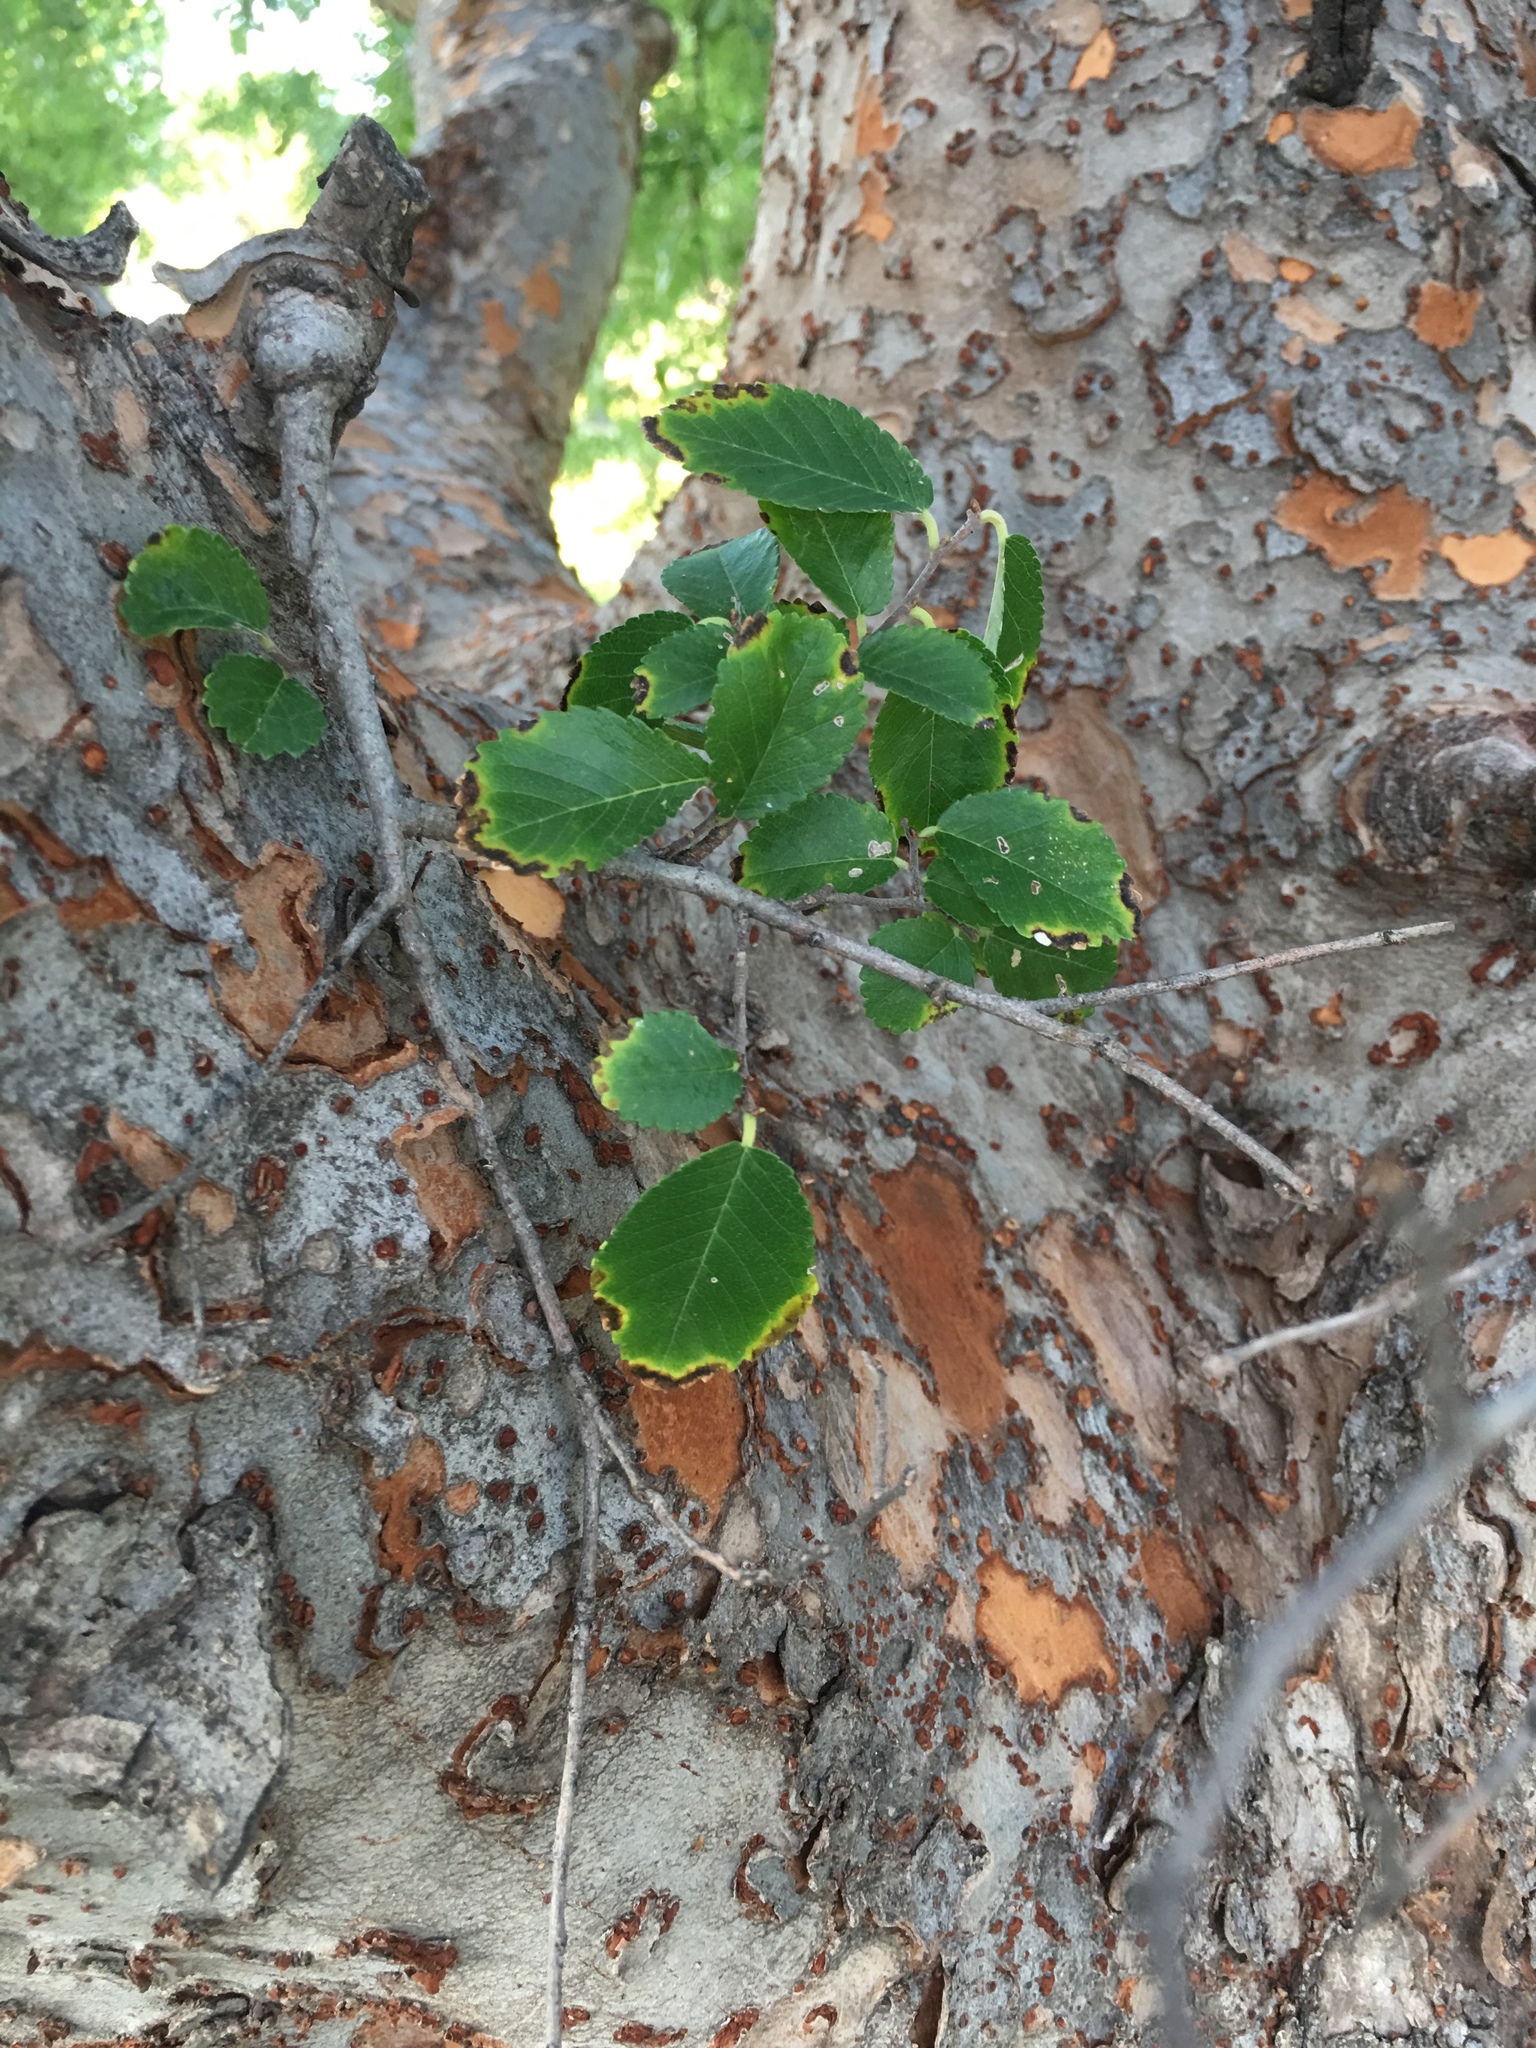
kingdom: Plantae
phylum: Tracheophyta
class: Magnoliopsida
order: Rosales
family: Ulmaceae
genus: Ulmus
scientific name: Ulmus parvifolia
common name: Chinese elm
